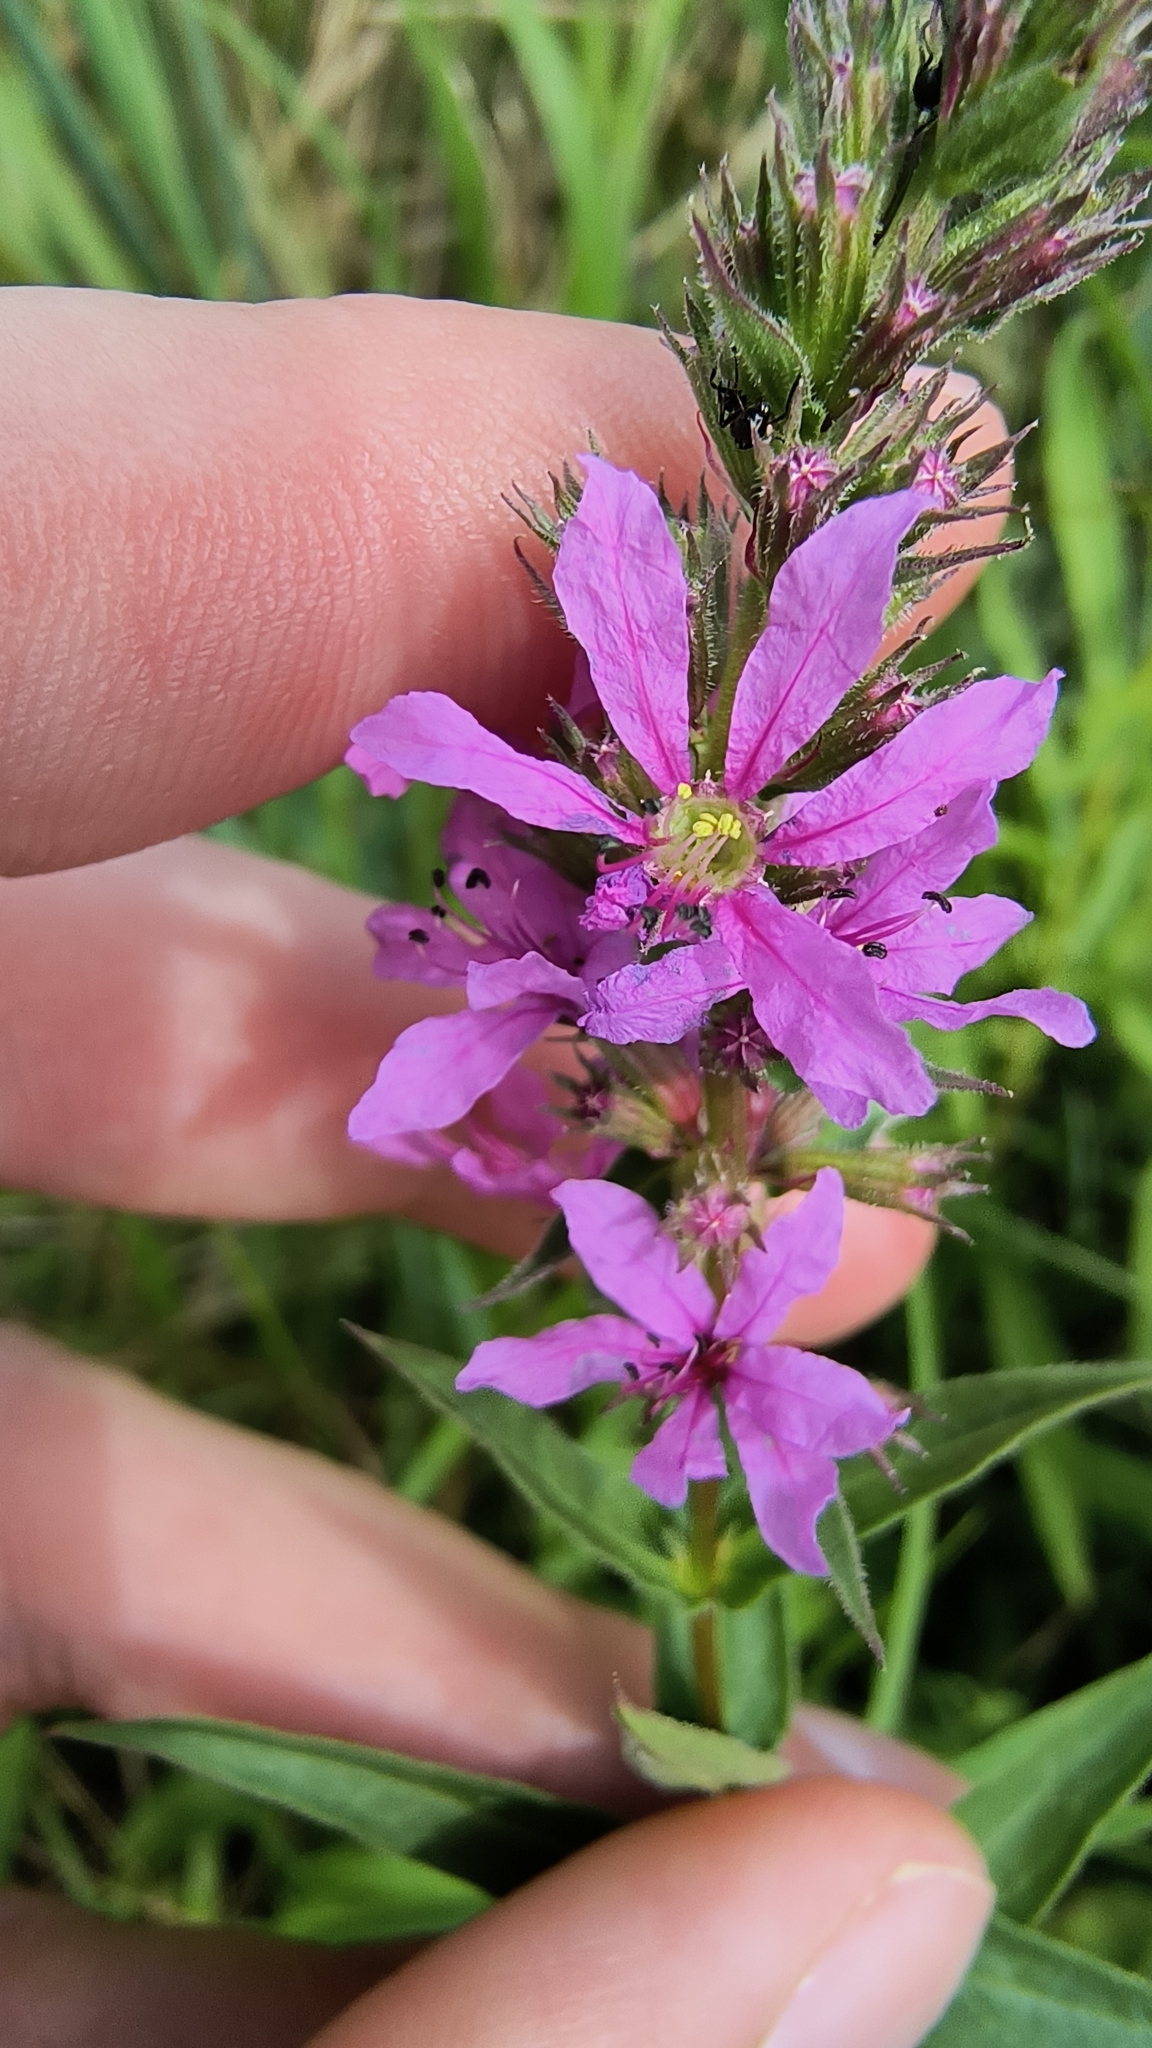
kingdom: Plantae
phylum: Tracheophyta
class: Magnoliopsida
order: Myrtales
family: Lythraceae
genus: Lythrum
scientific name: Lythrum salicaria
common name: Purple loosestrife
